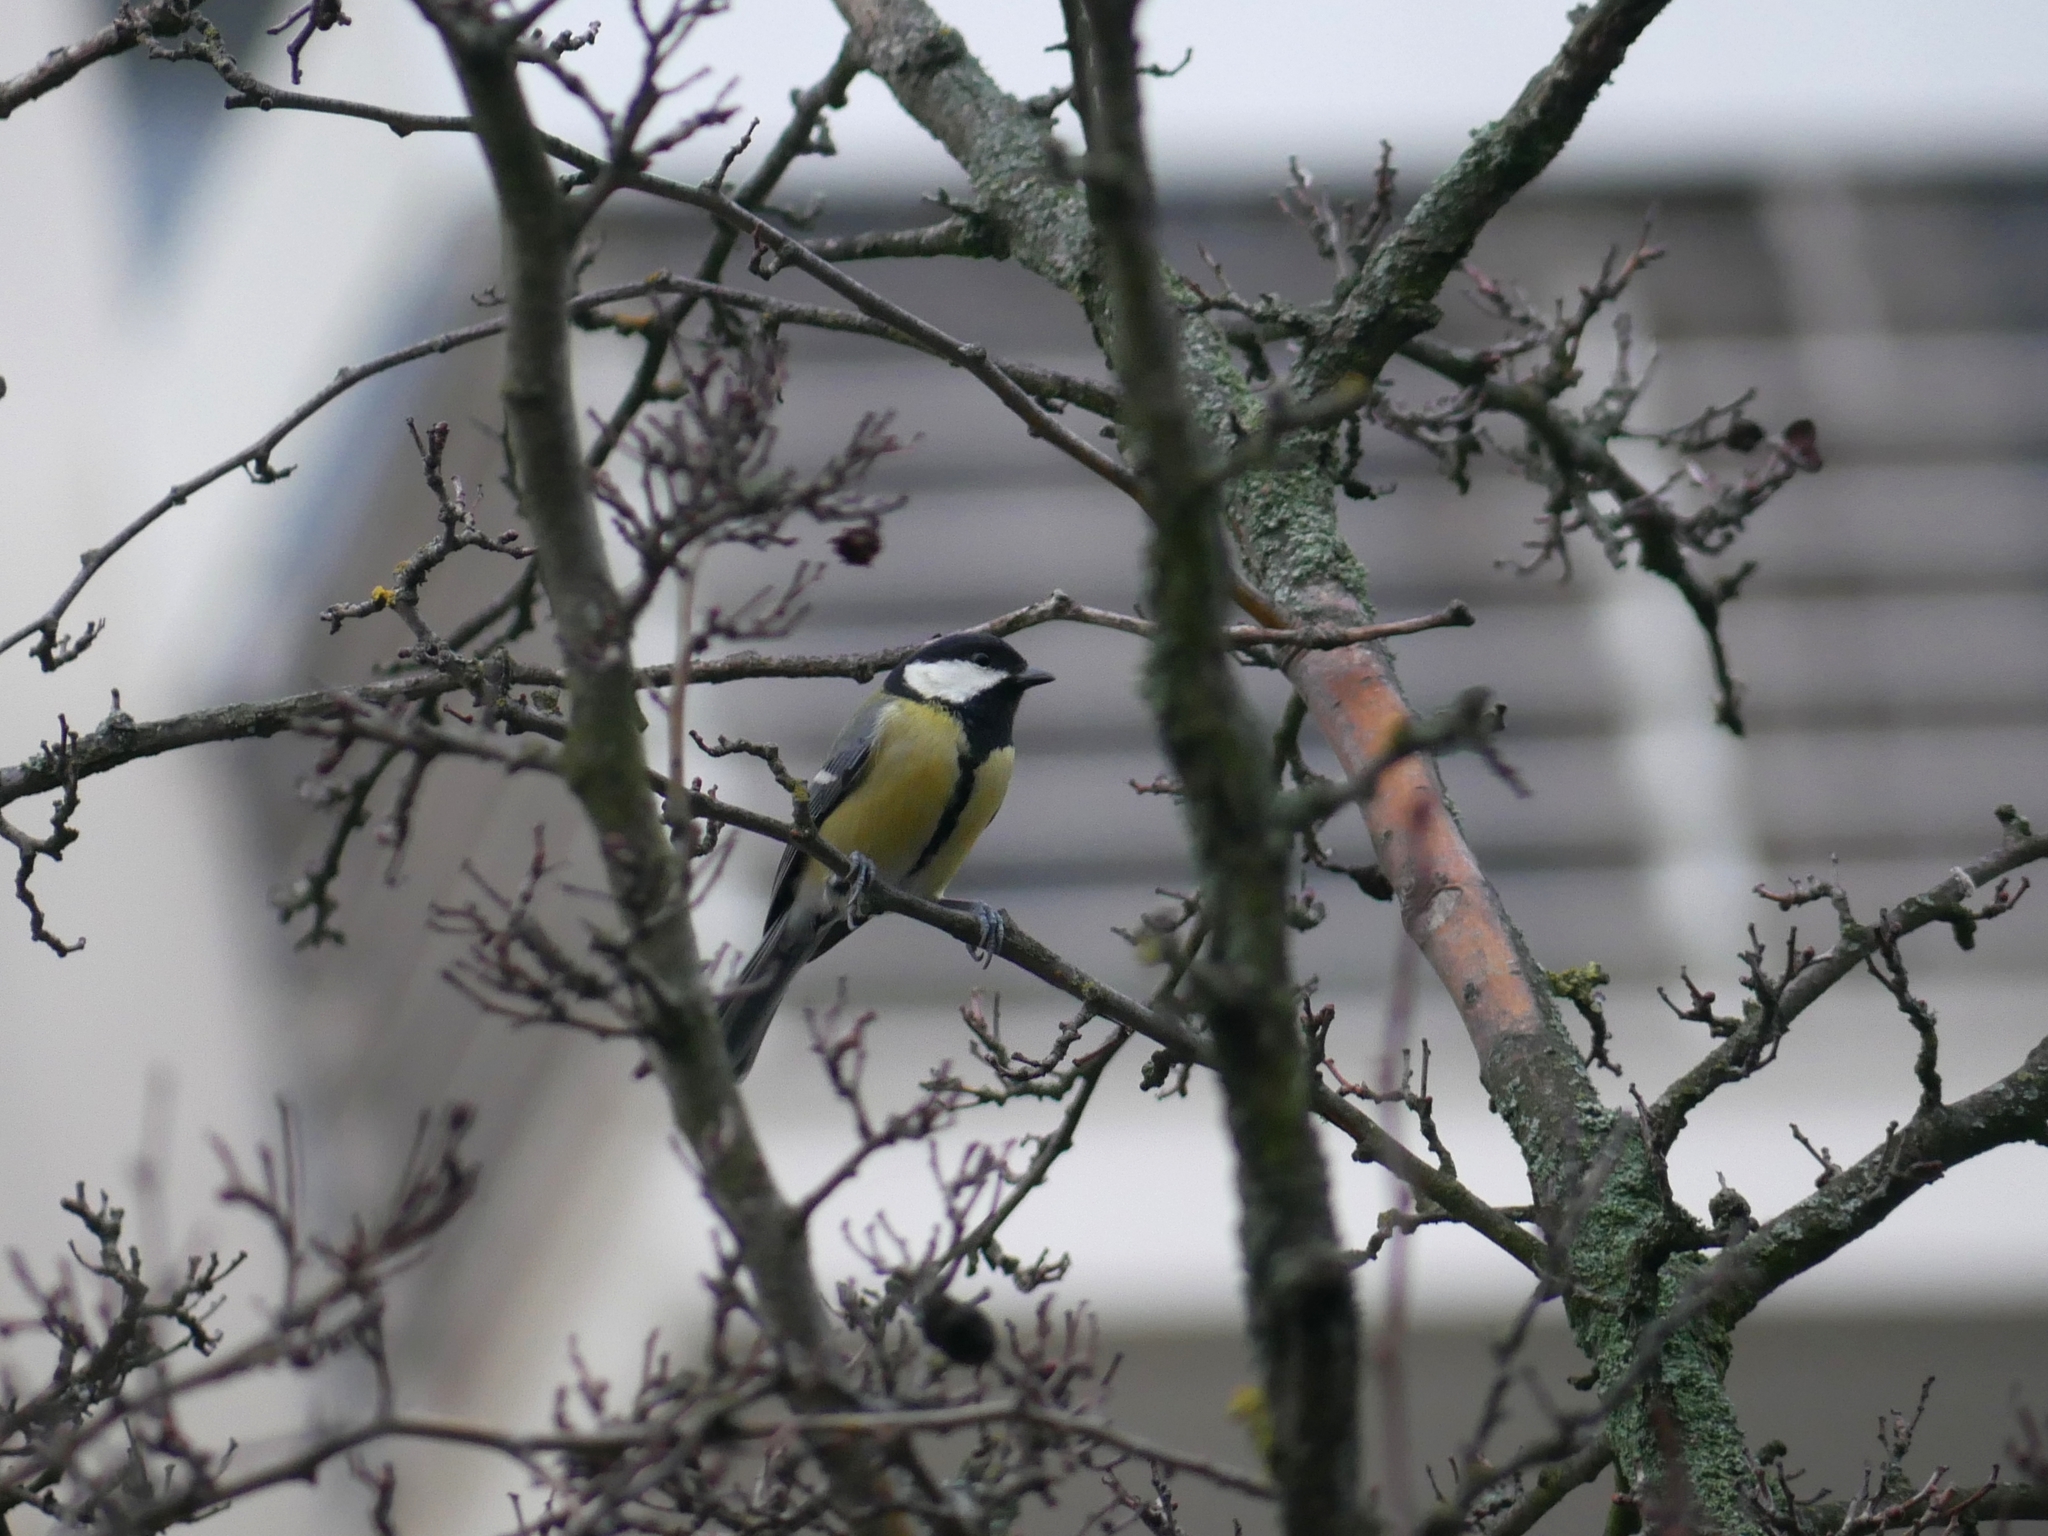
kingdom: Animalia
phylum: Chordata
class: Aves
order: Passeriformes
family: Paridae
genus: Parus
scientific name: Parus major
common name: Great tit
